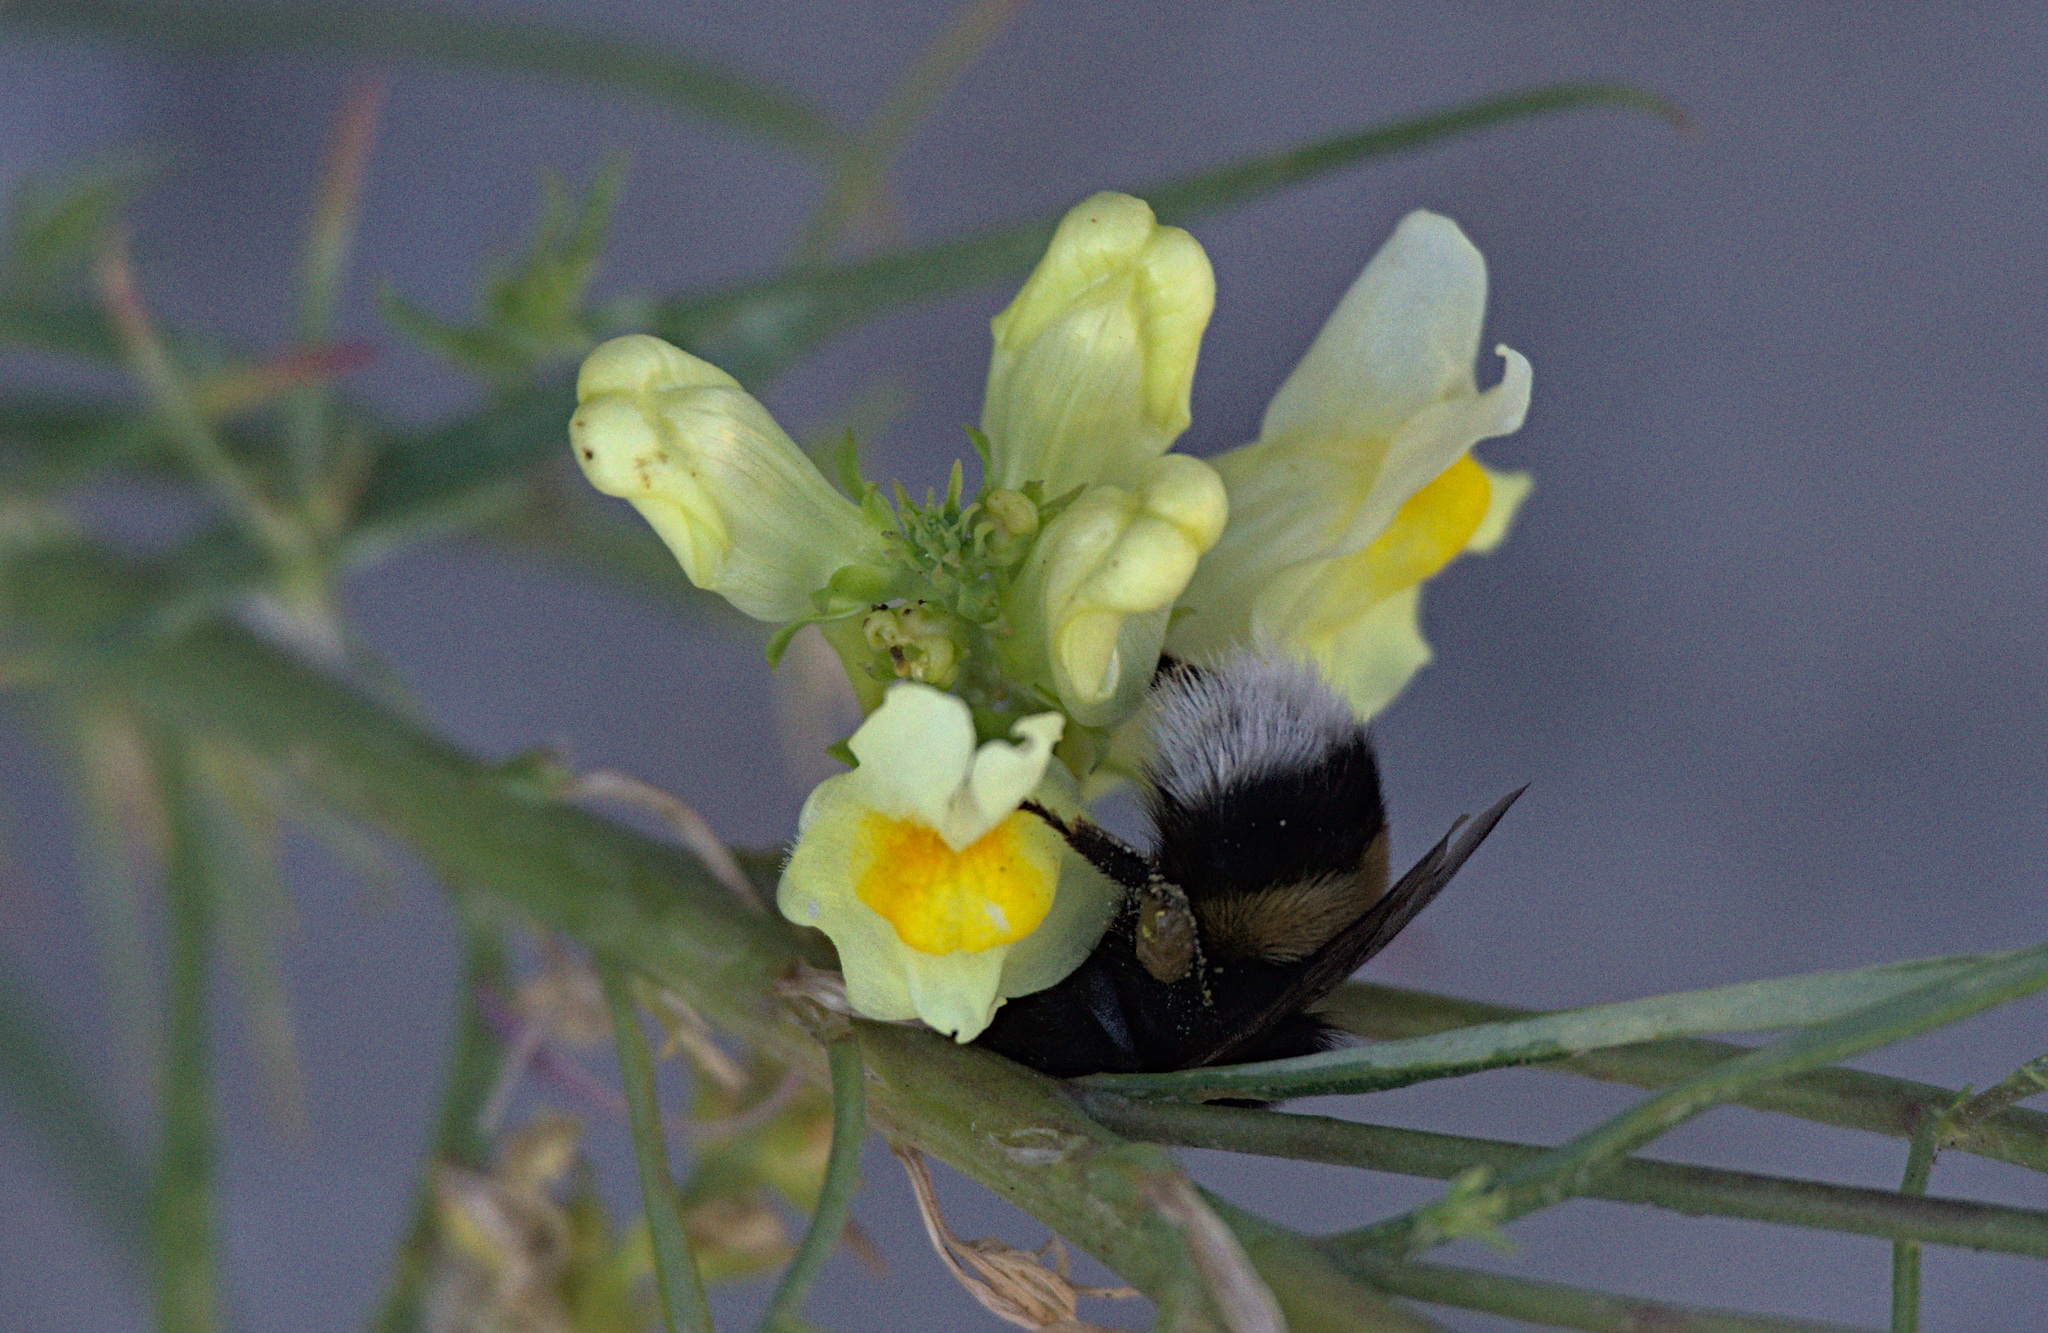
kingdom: Animalia
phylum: Arthropoda
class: Insecta
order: Hymenoptera
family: Apidae
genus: Bombus
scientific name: Bombus lucorum
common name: White-tailed bumblebee
